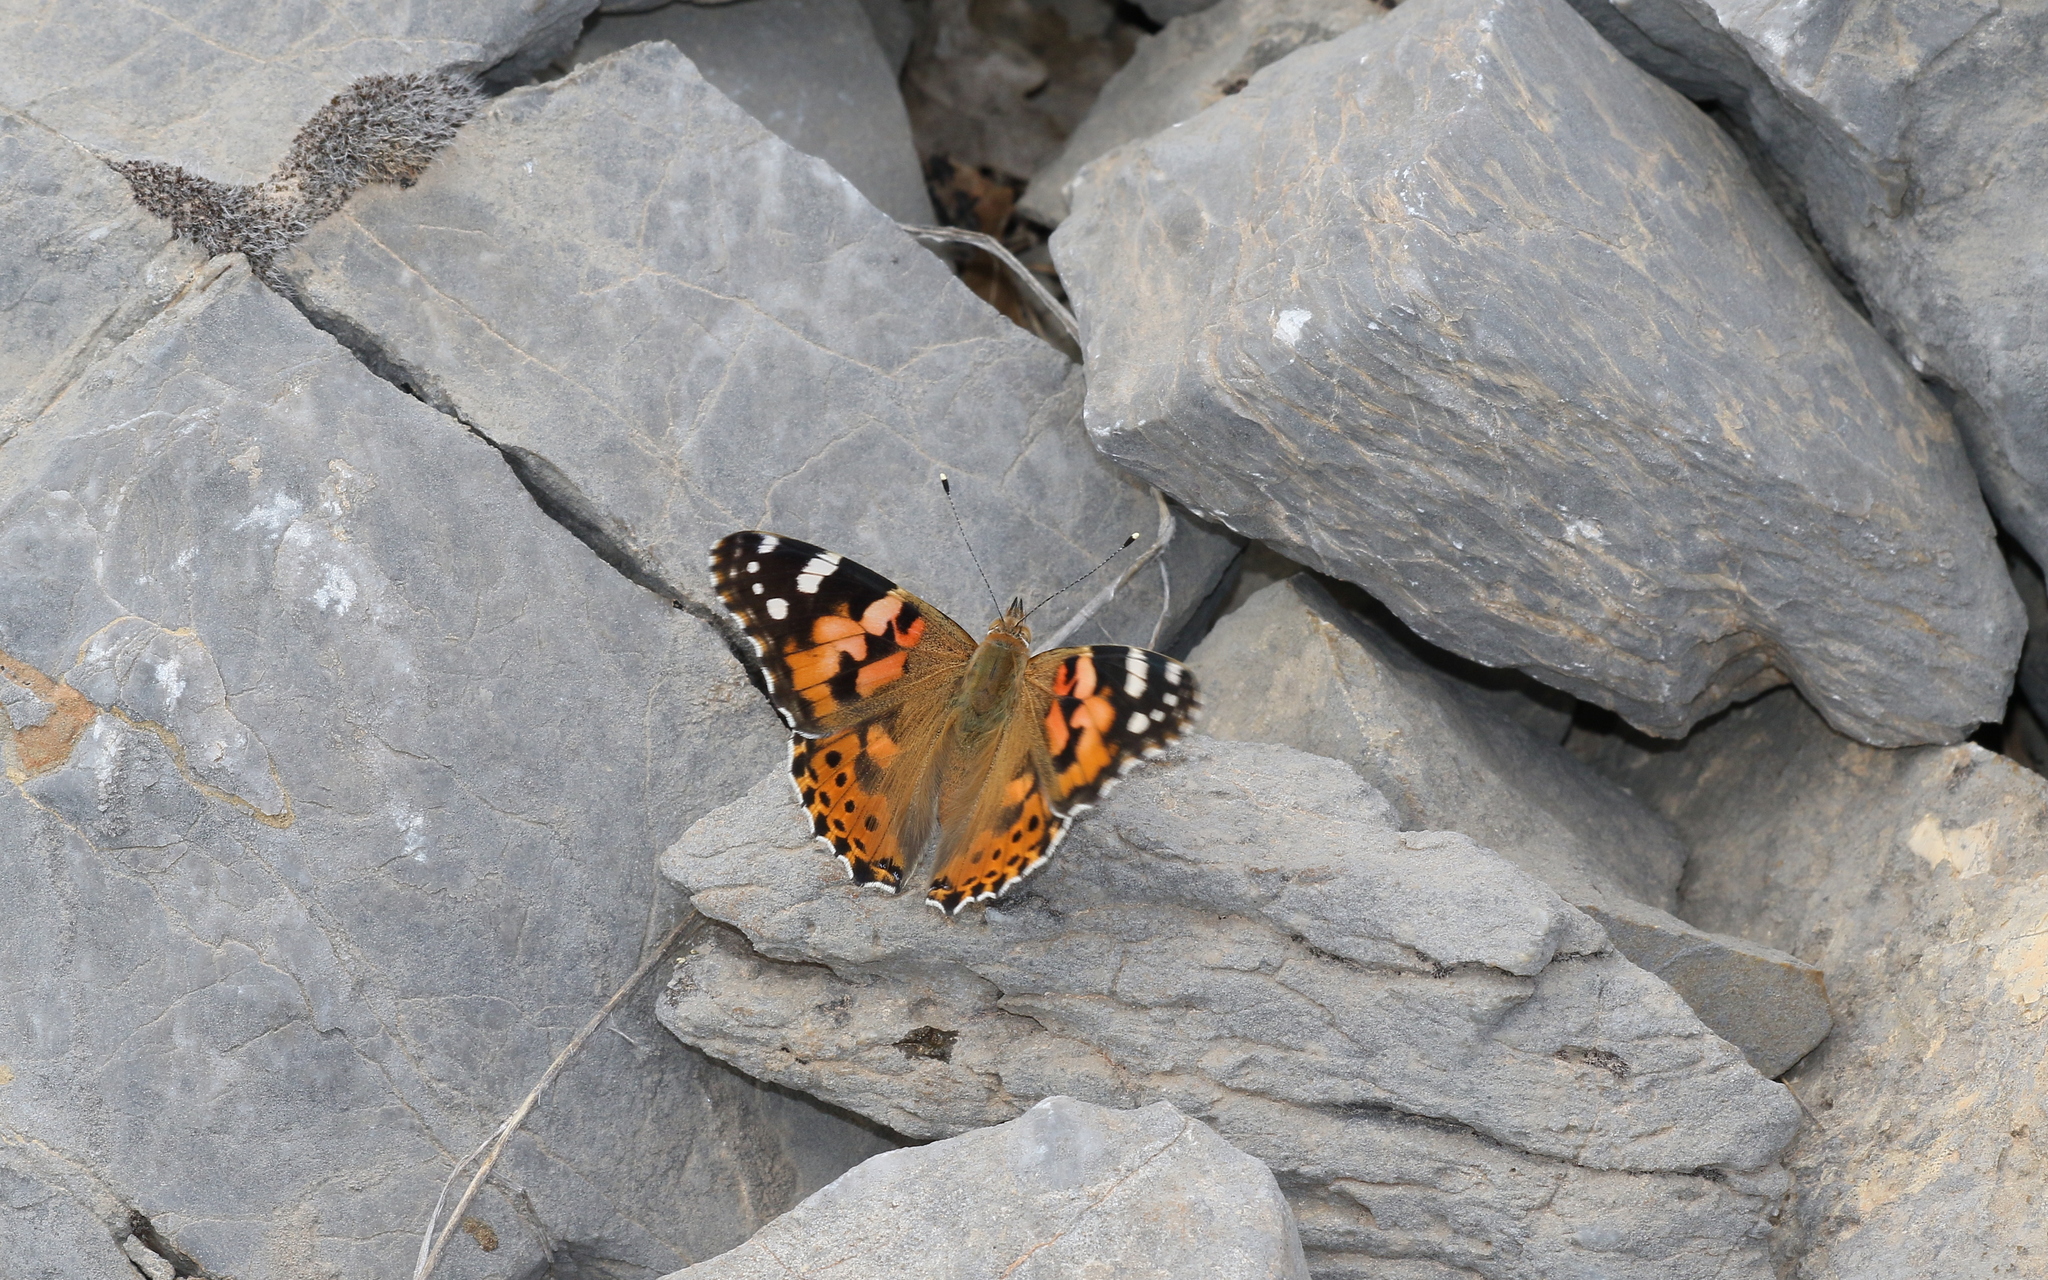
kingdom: Animalia
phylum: Arthropoda
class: Insecta
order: Lepidoptera
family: Nymphalidae
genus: Vanessa
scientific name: Vanessa cardui
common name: Painted lady
